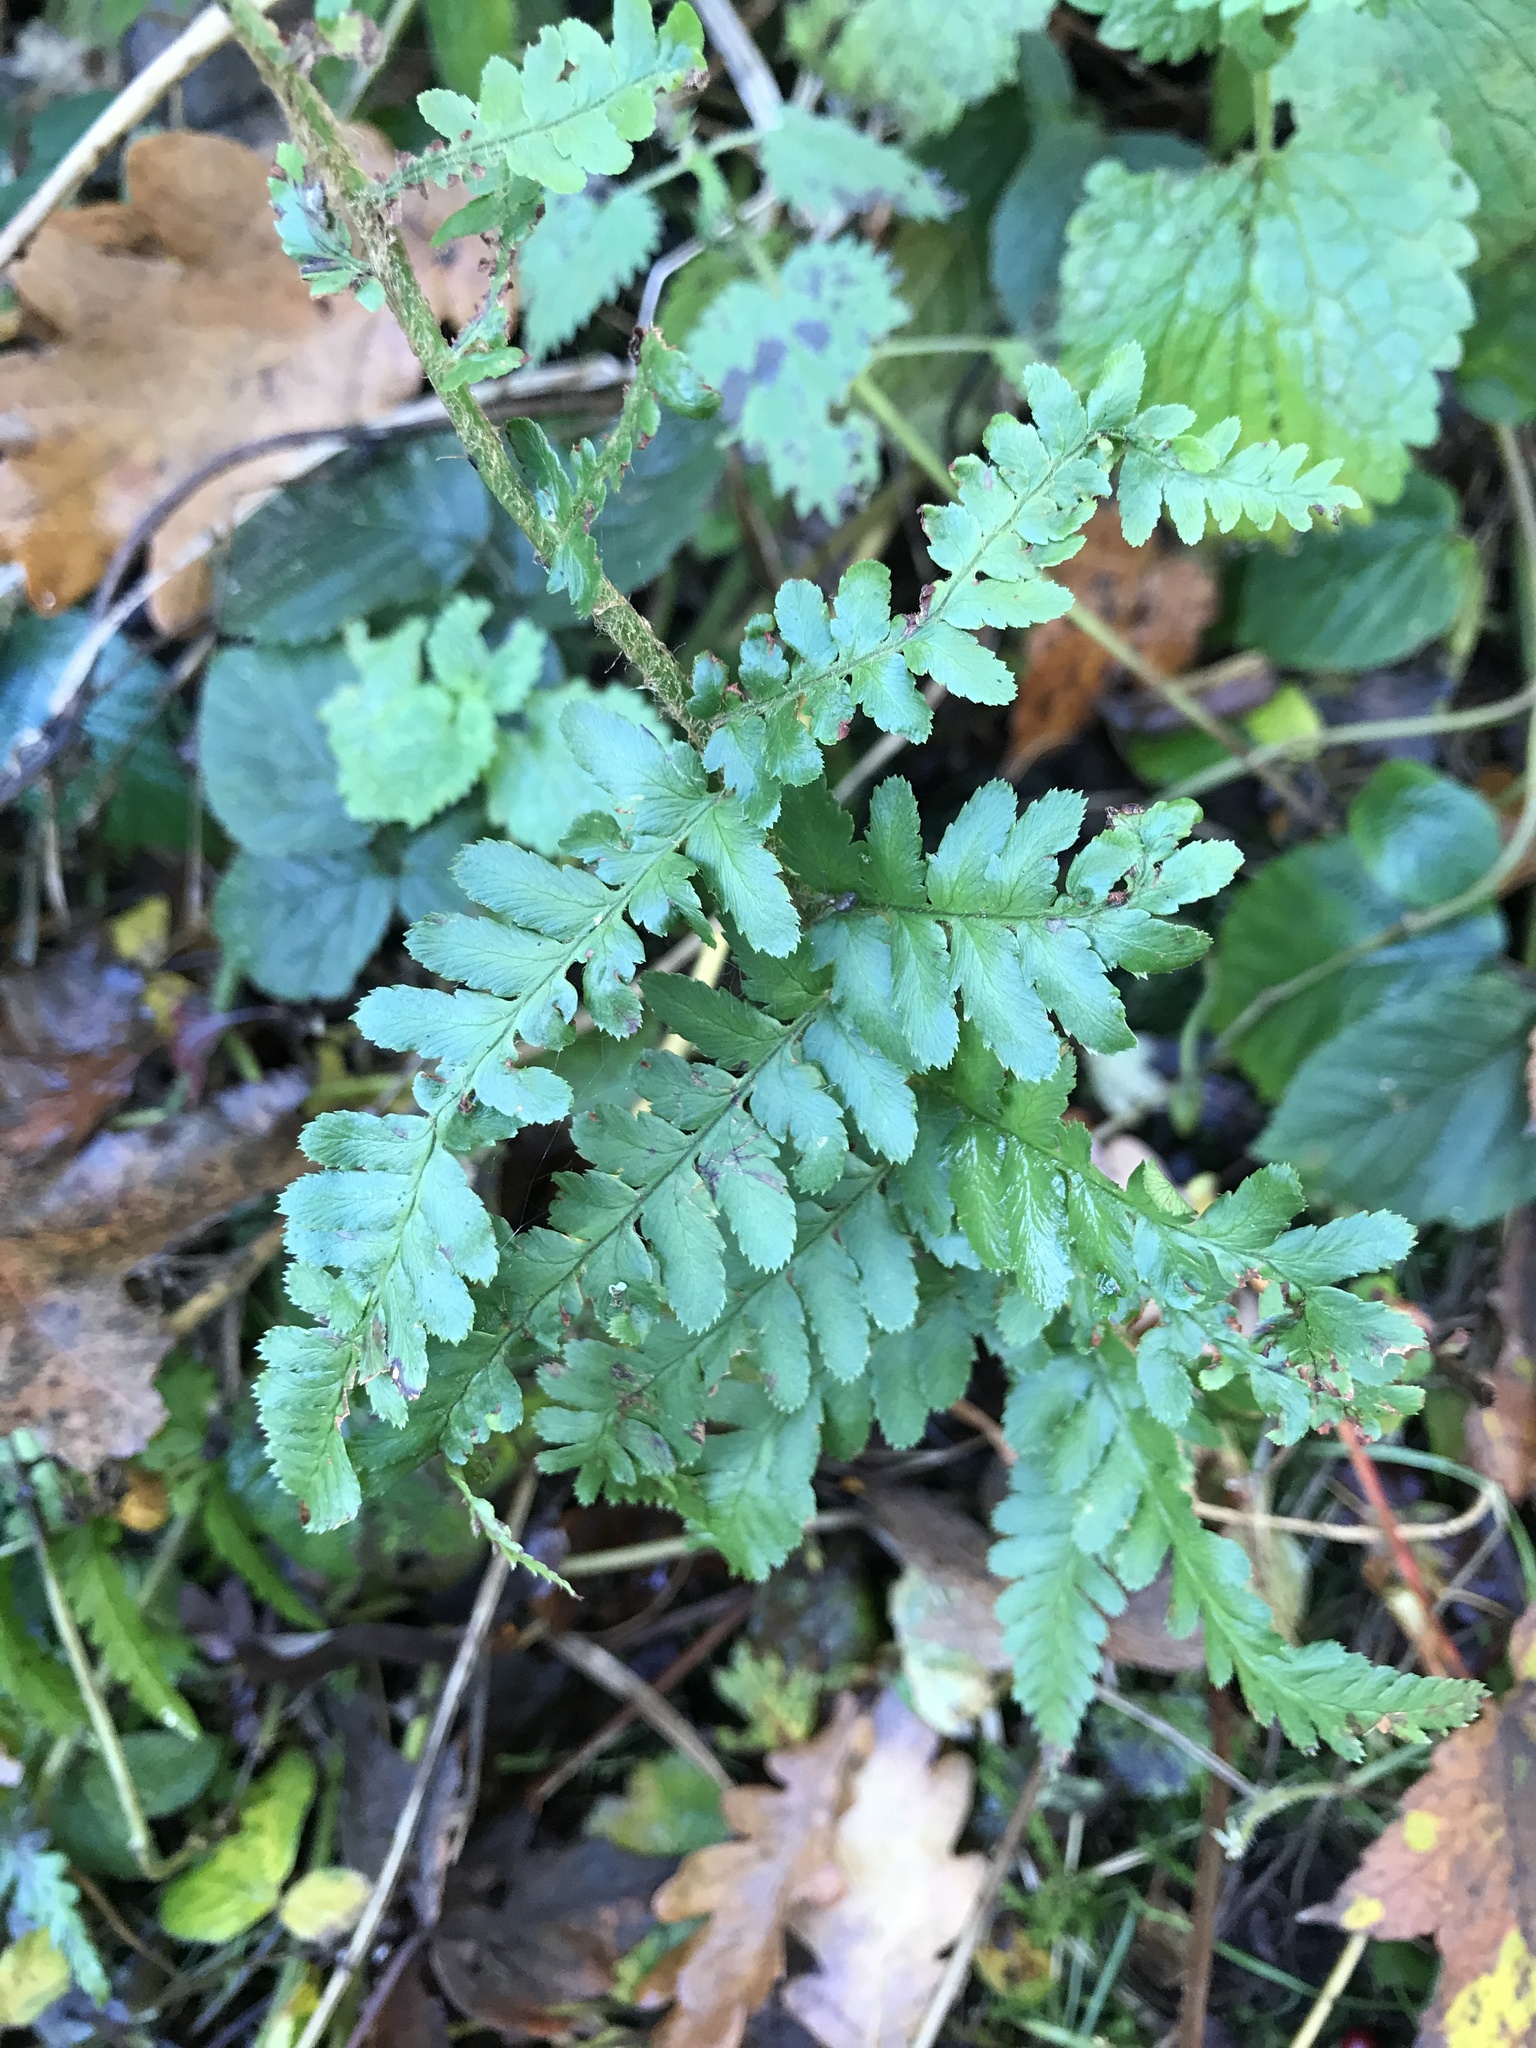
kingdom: Plantae
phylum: Tracheophyta
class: Polypodiopsida
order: Polypodiales
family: Dryopteridaceae
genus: Dryopteris
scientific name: Dryopteris filix-mas
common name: Male fern
